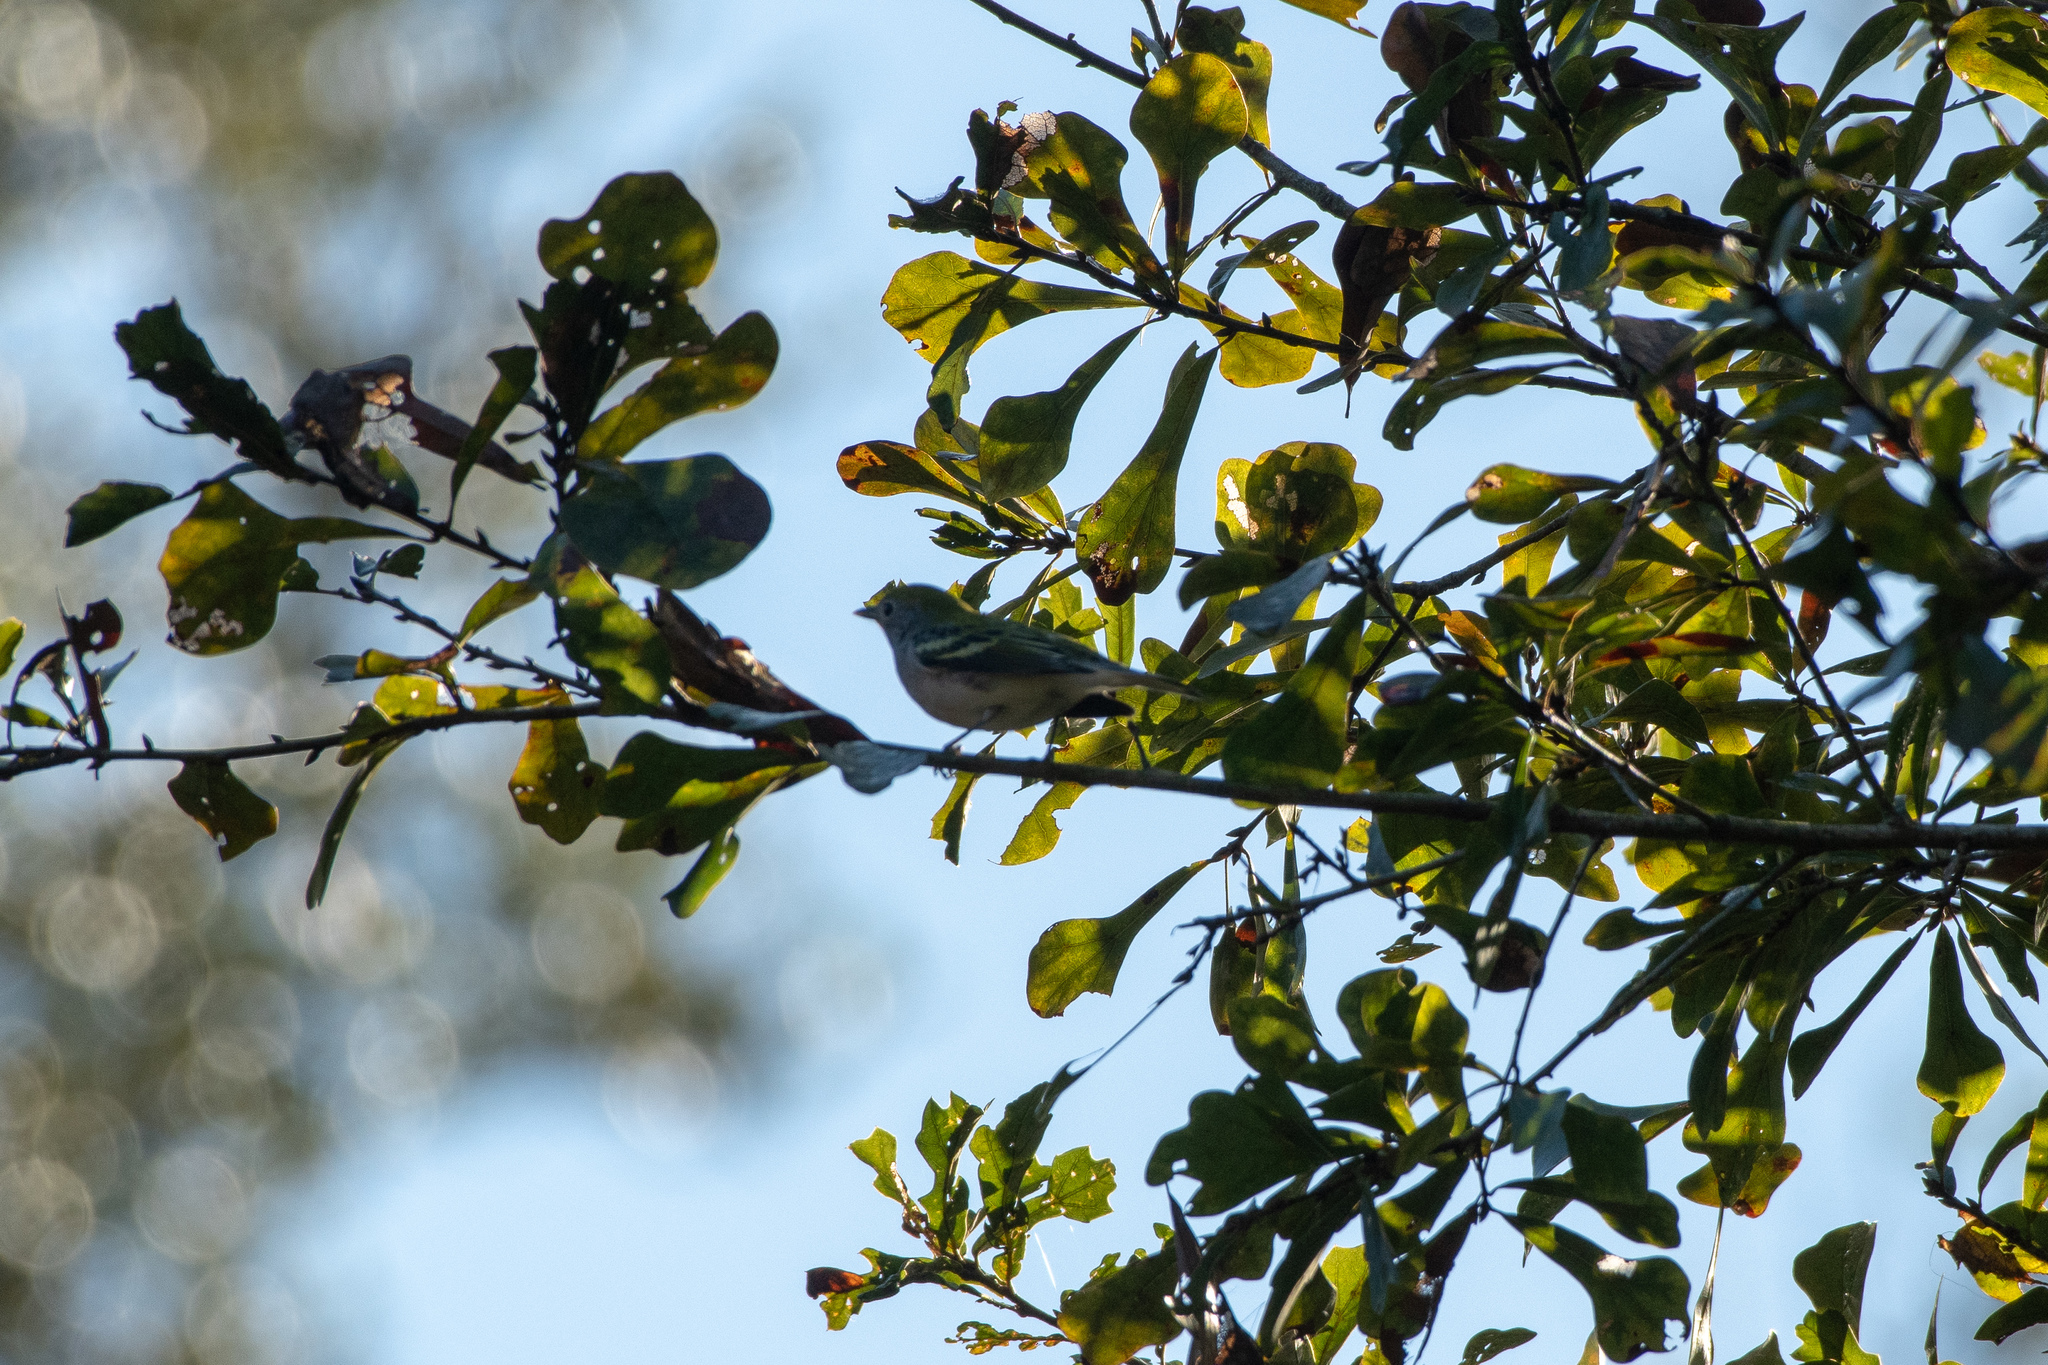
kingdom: Animalia
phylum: Chordata
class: Aves
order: Passeriformes
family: Parulidae
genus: Setophaga
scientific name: Setophaga pensylvanica
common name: Chestnut-sided warbler
